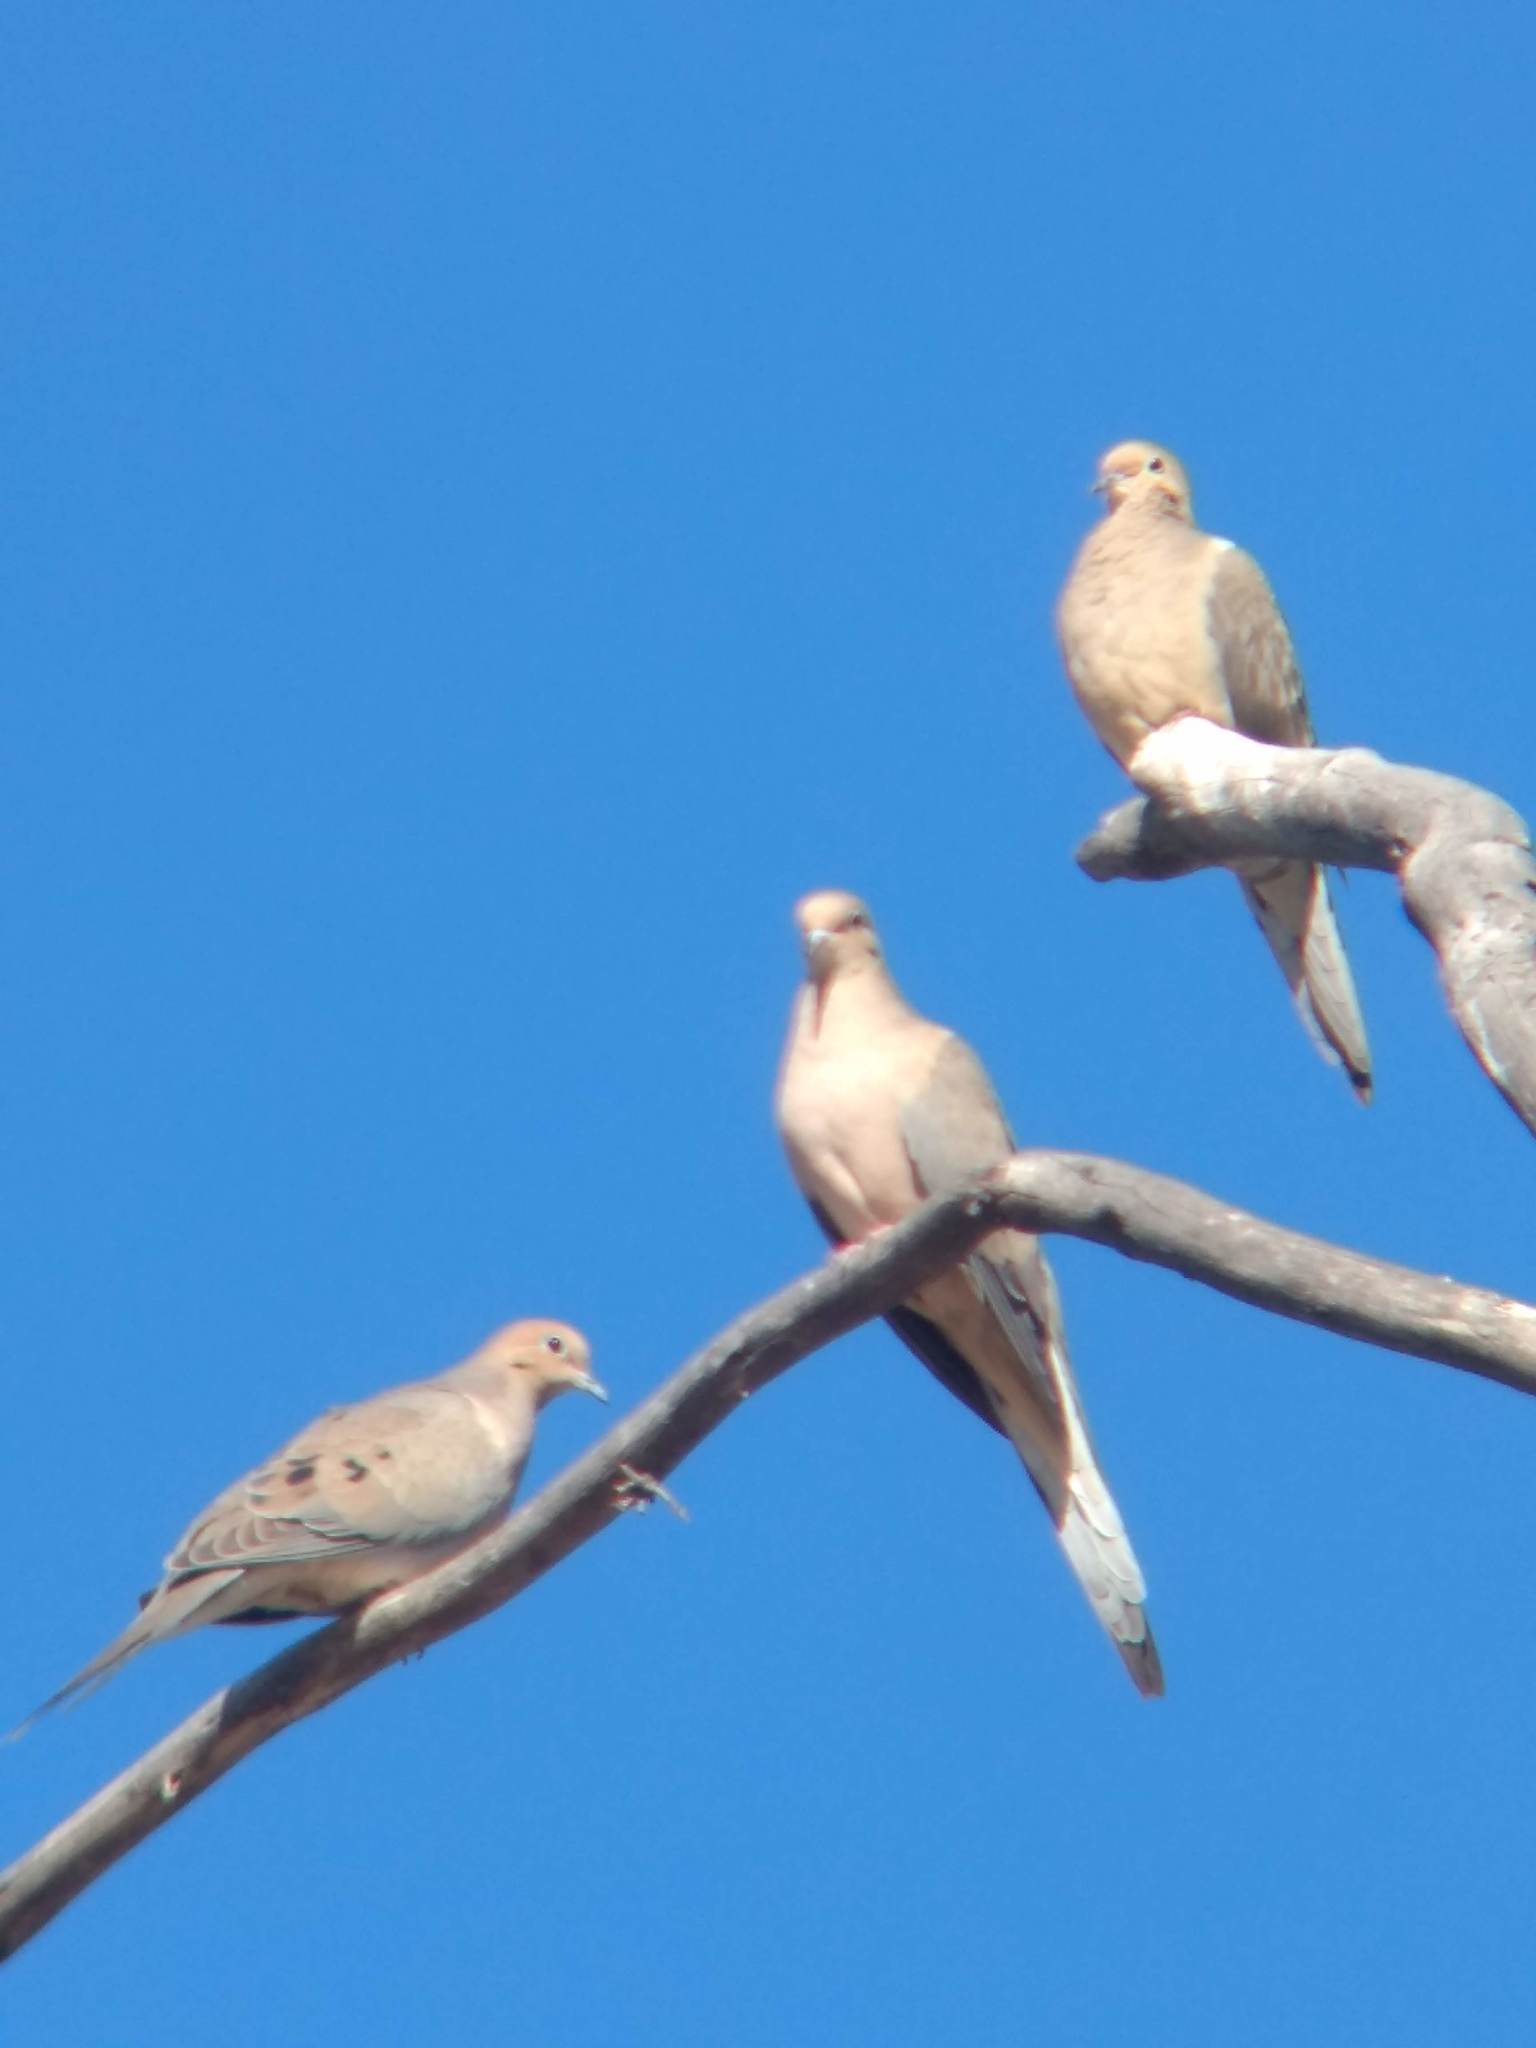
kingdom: Animalia
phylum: Chordata
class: Aves
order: Columbiformes
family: Columbidae
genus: Zenaida
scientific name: Zenaida macroura
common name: Mourning dove
